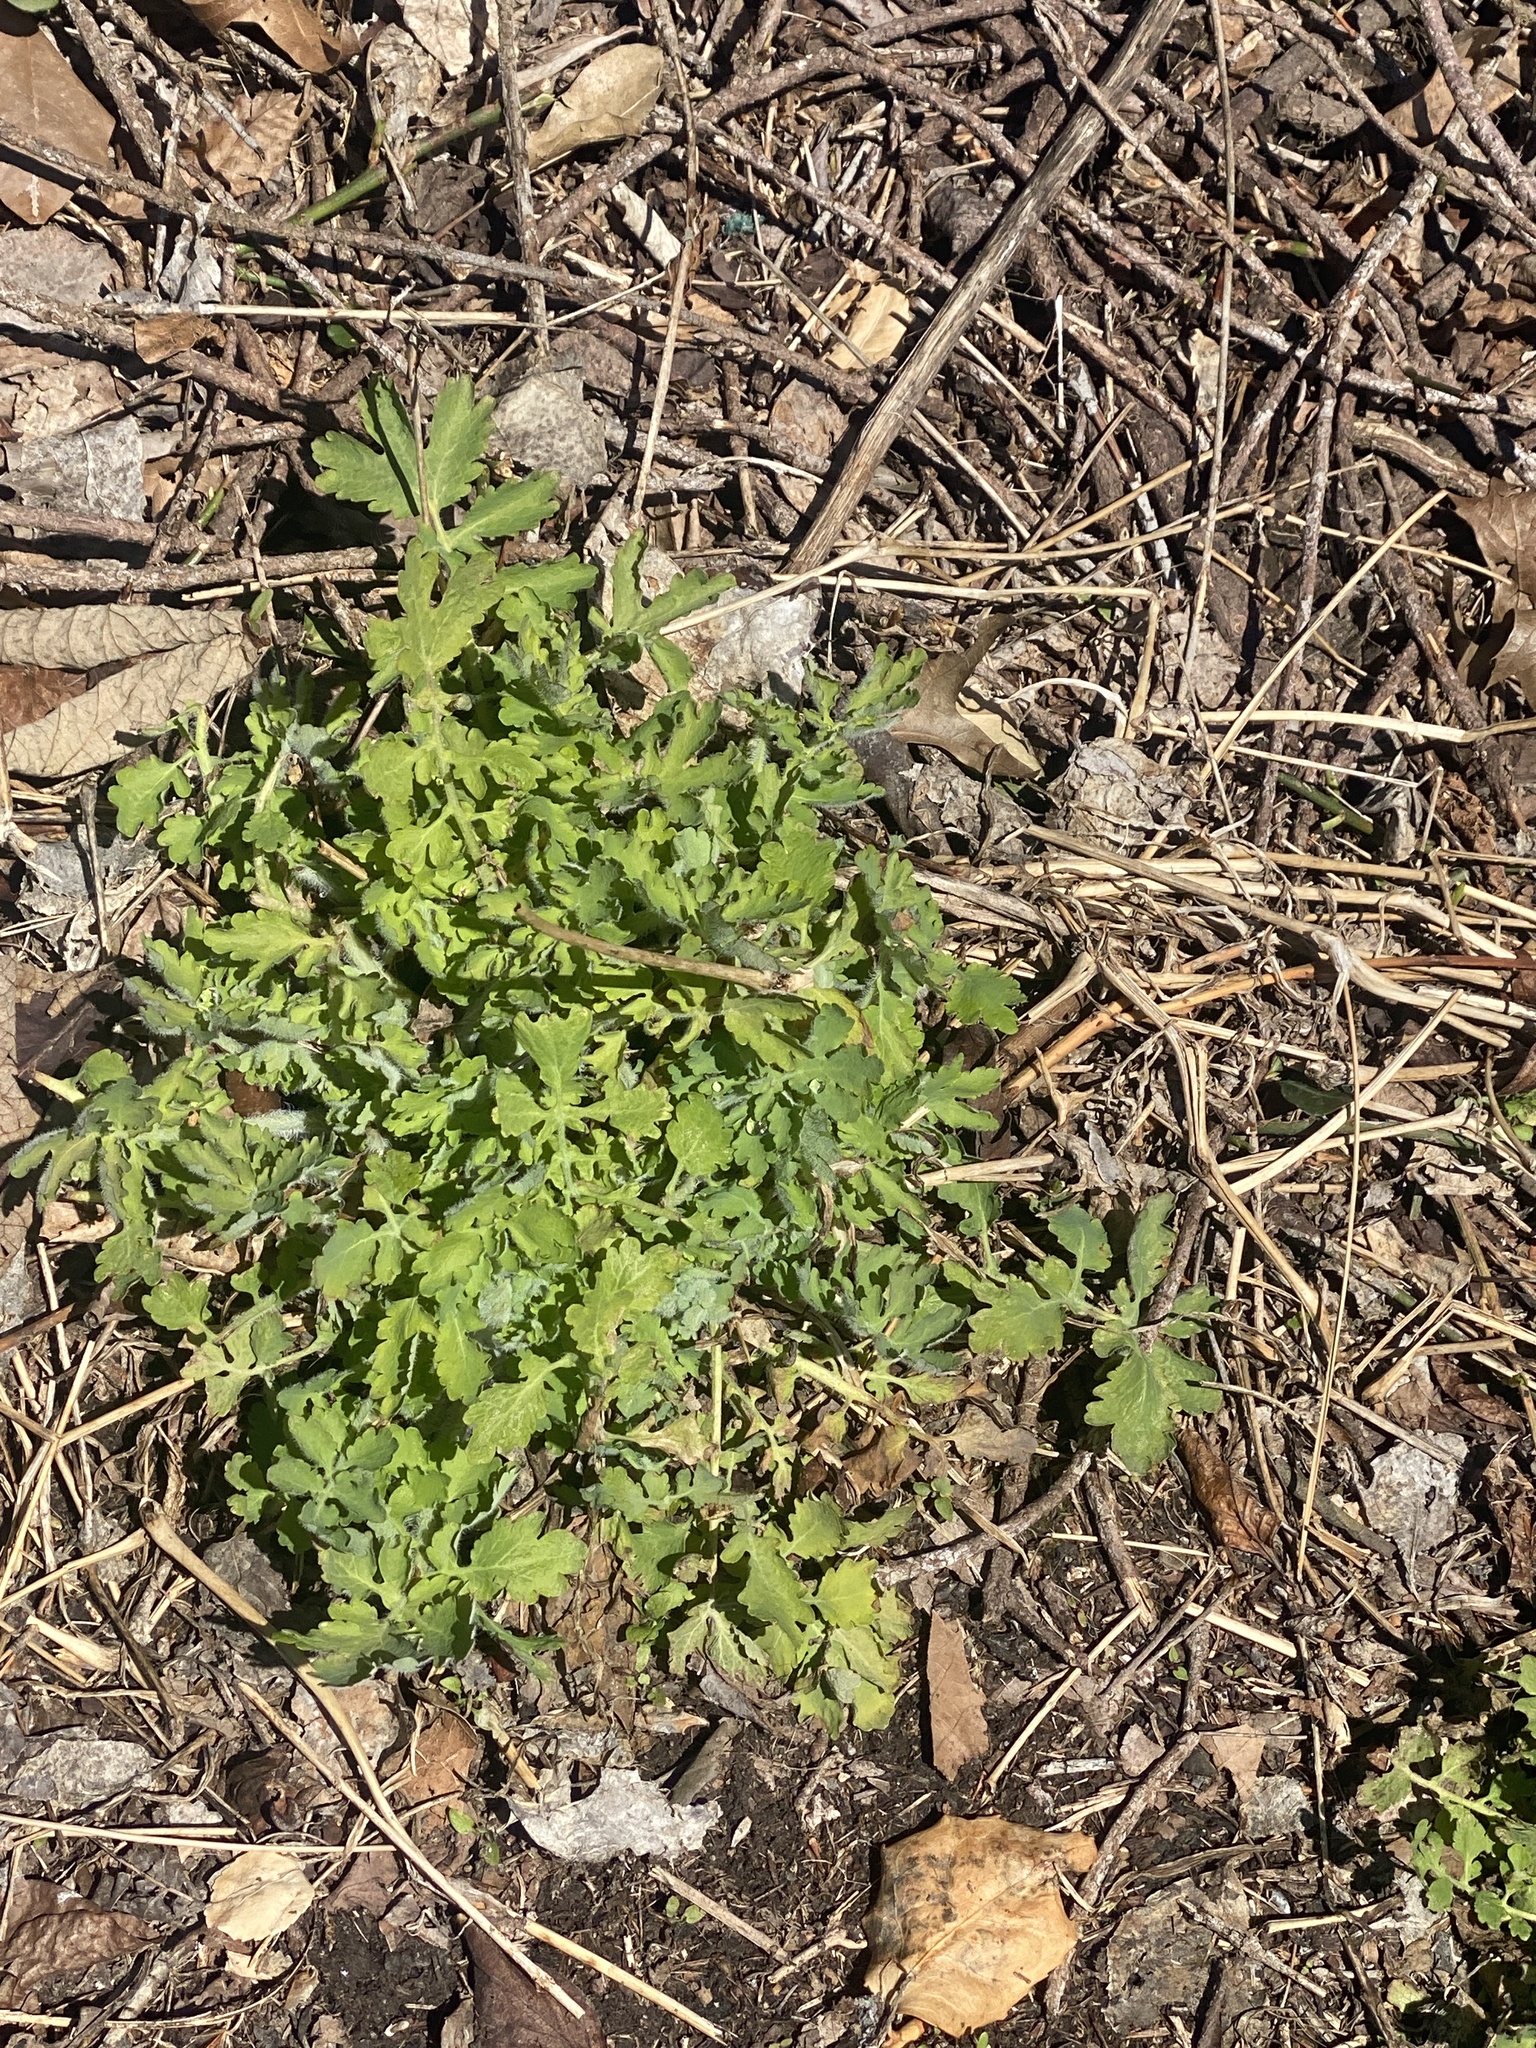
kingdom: Plantae
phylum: Tracheophyta
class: Magnoliopsida
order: Ranunculales
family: Papaveraceae
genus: Chelidonium
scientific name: Chelidonium majus
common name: Greater celandine
